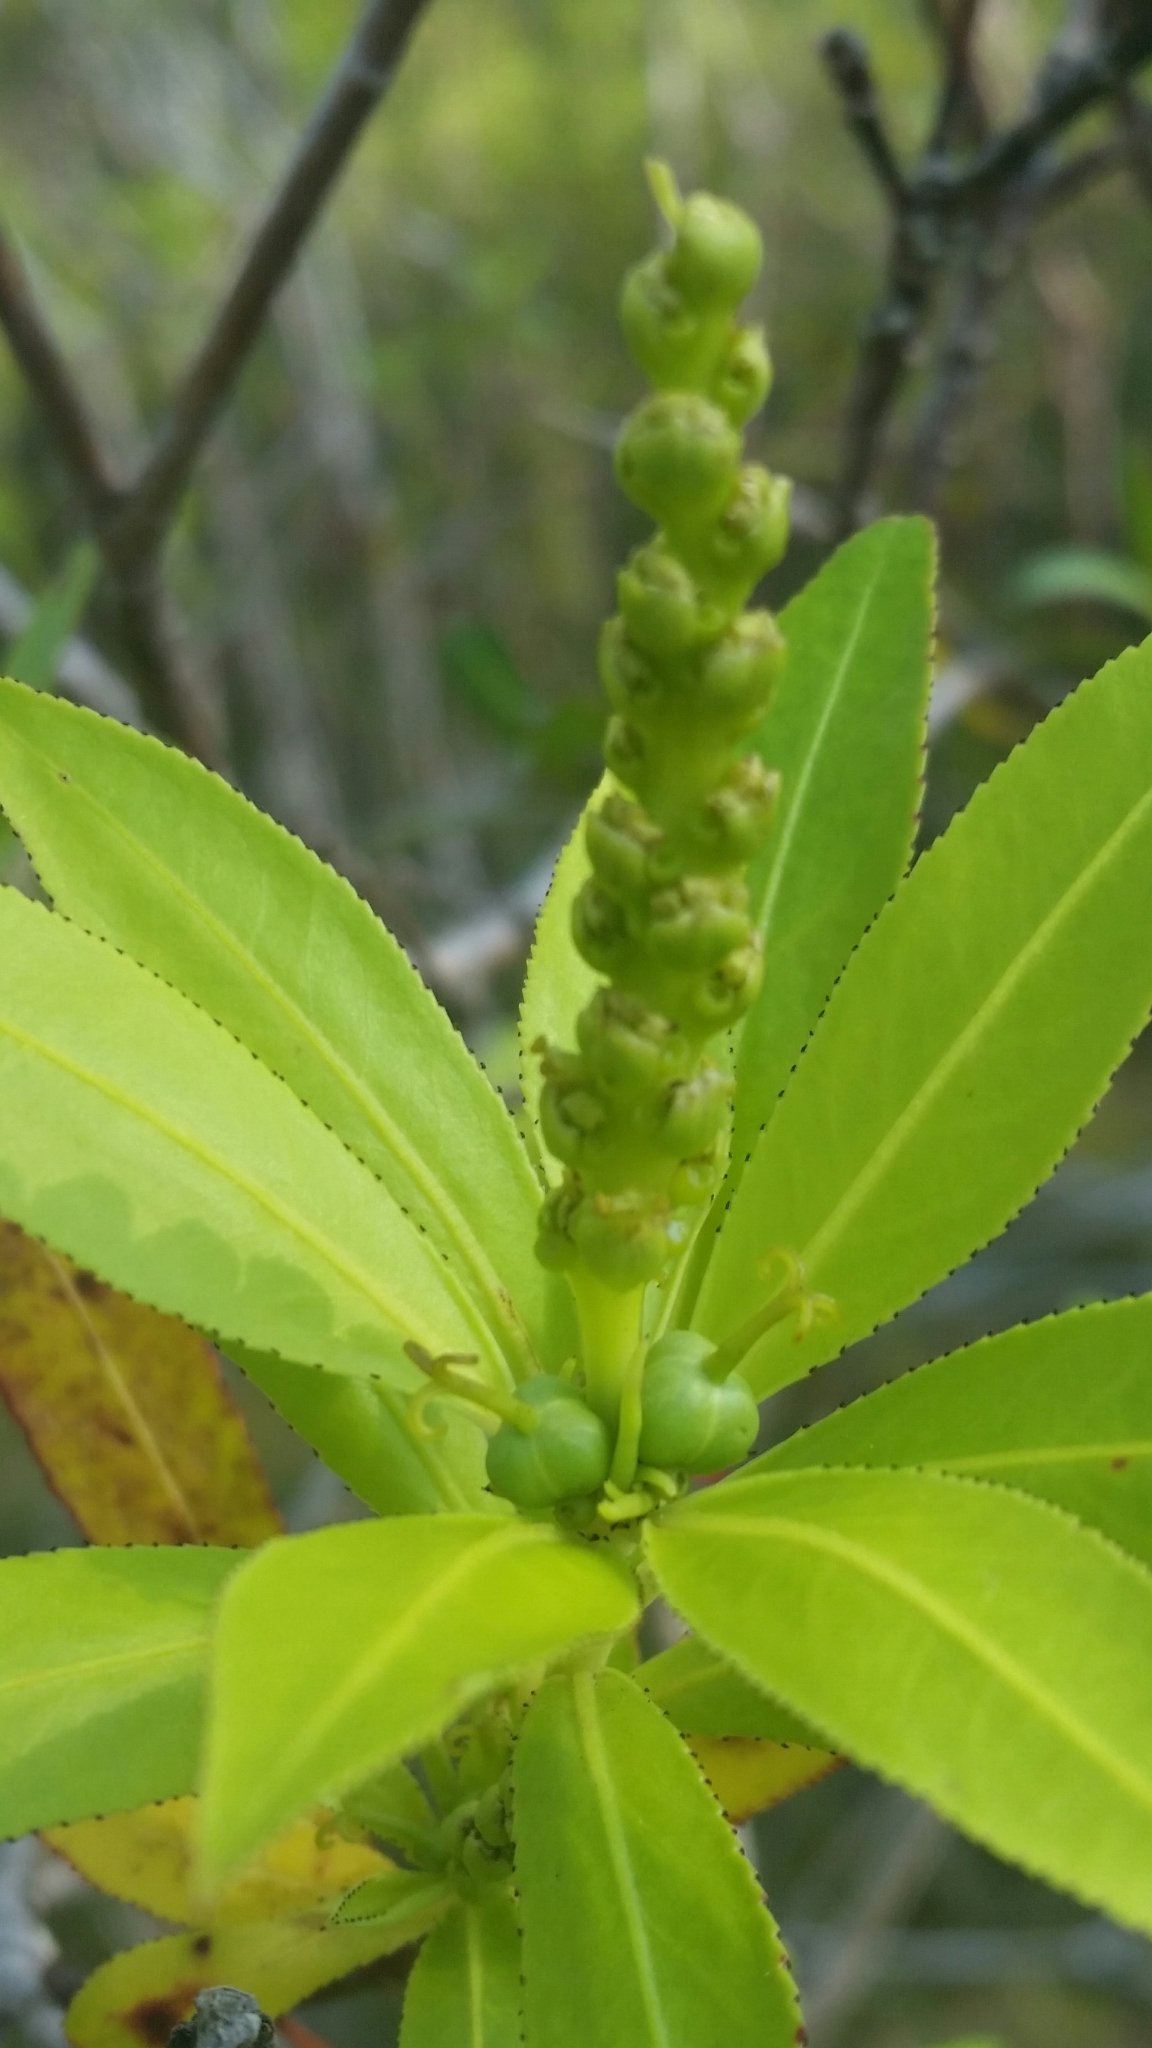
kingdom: Plantae
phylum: Tracheophyta
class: Magnoliopsida
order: Malpighiales
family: Euphorbiaceae
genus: Stillingia
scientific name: Stillingia aquatica
